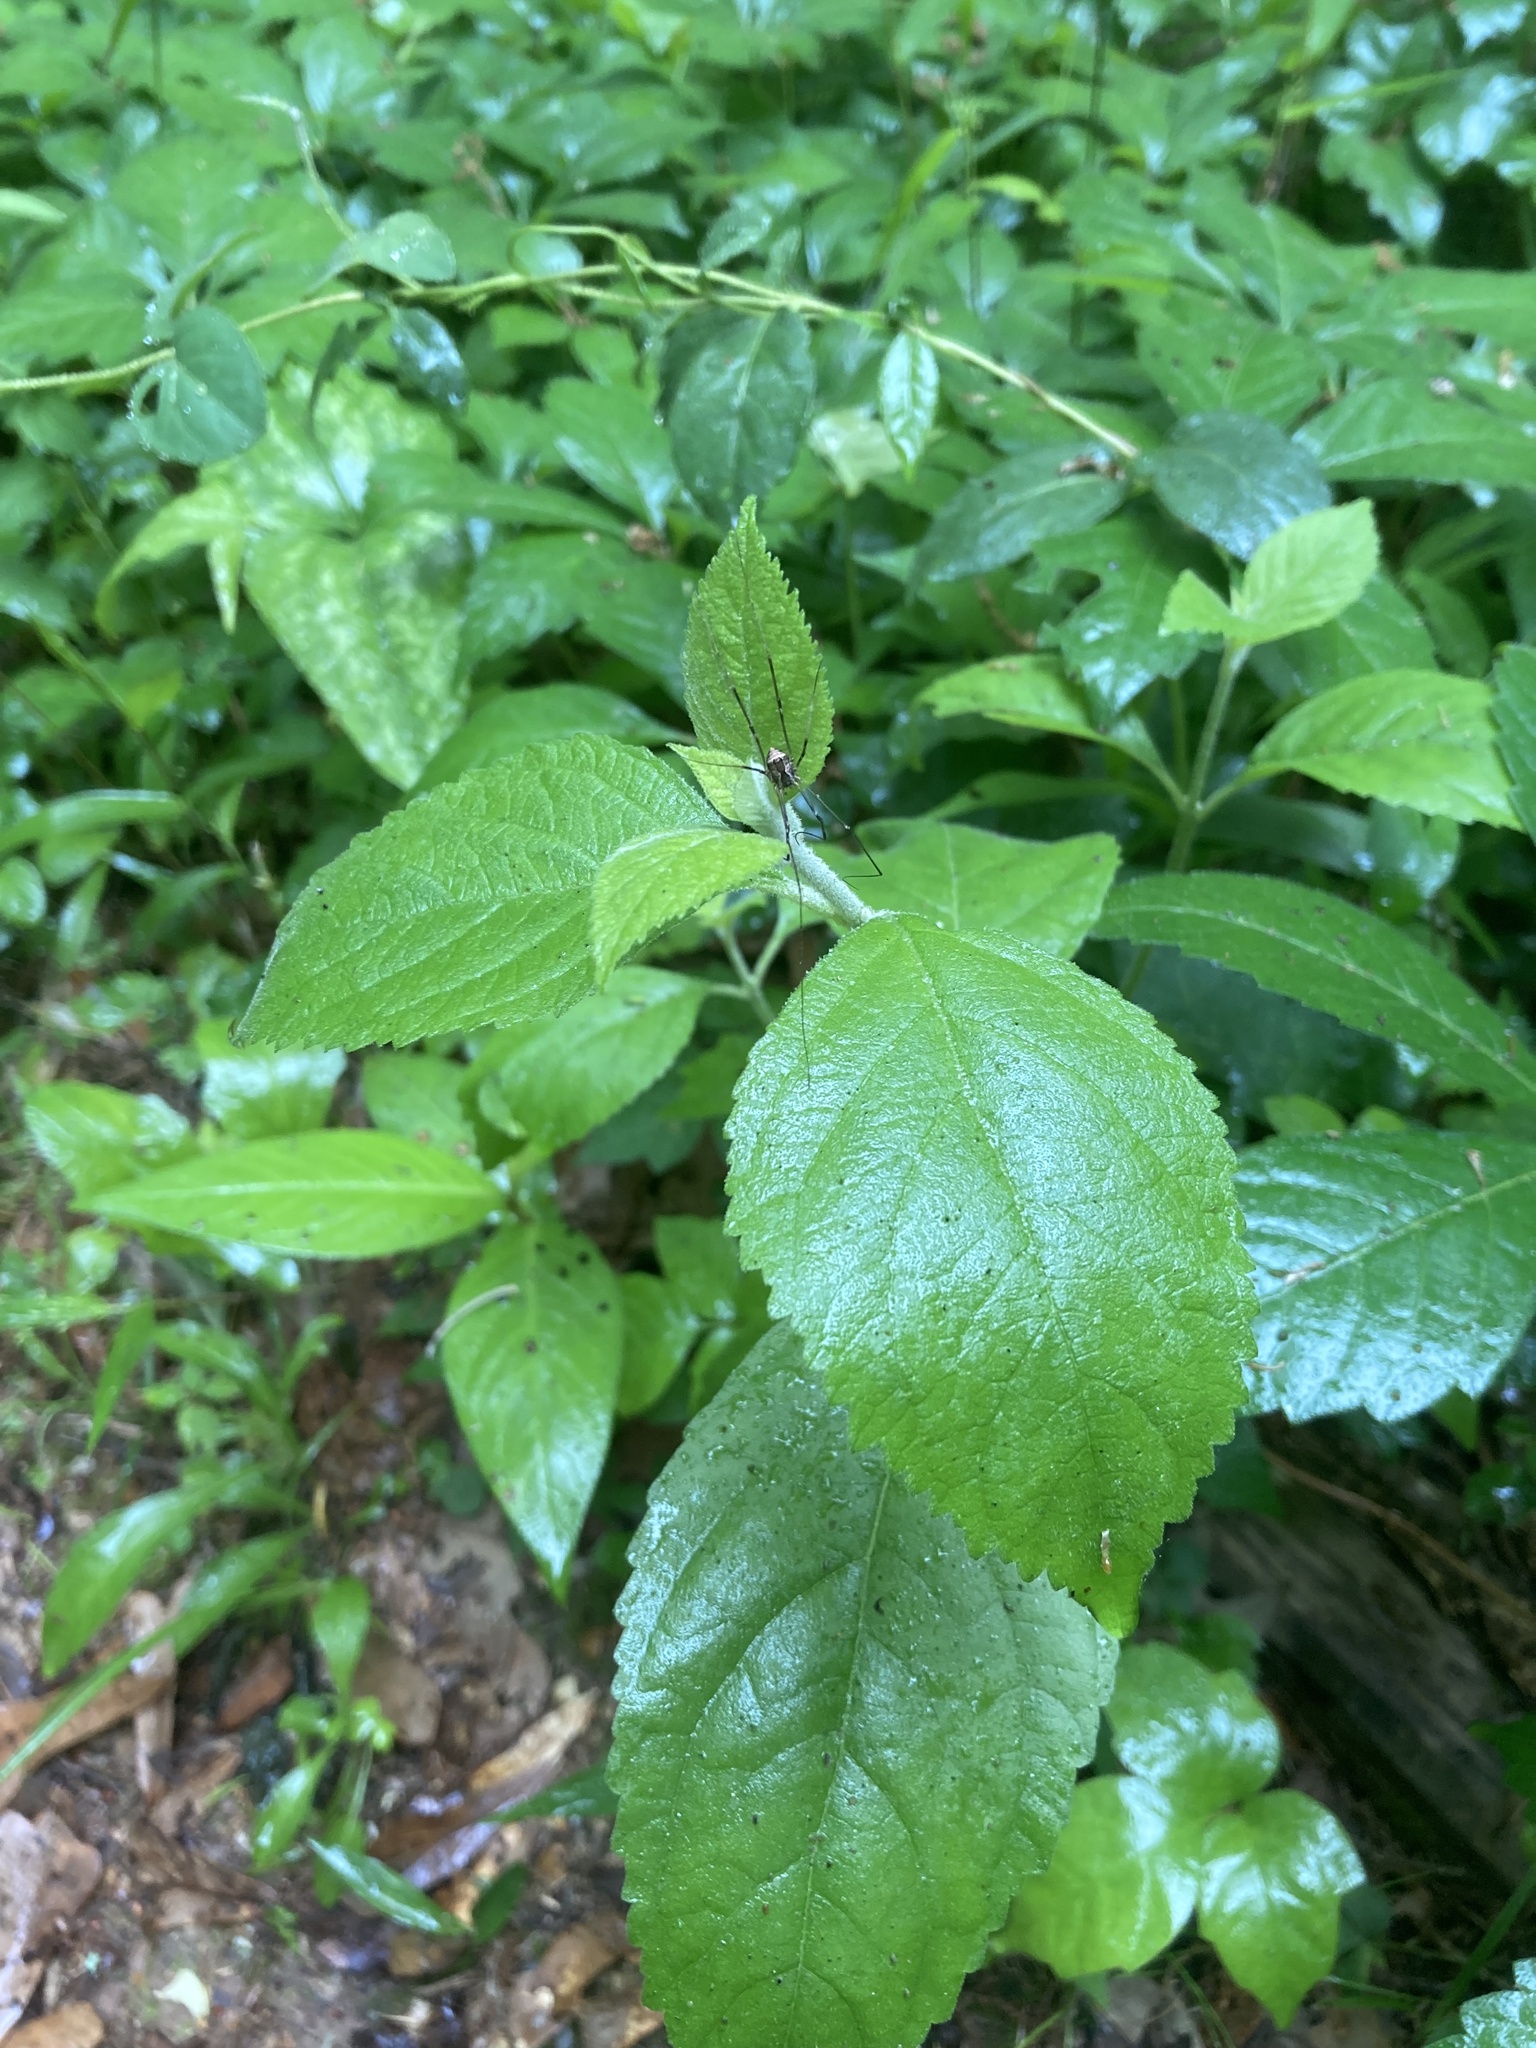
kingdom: Plantae
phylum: Tracheophyta
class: Magnoliopsida
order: Lamiales
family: Lamiaceae
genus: Callicarpa
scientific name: Callicarpa americana
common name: American beautyberry
